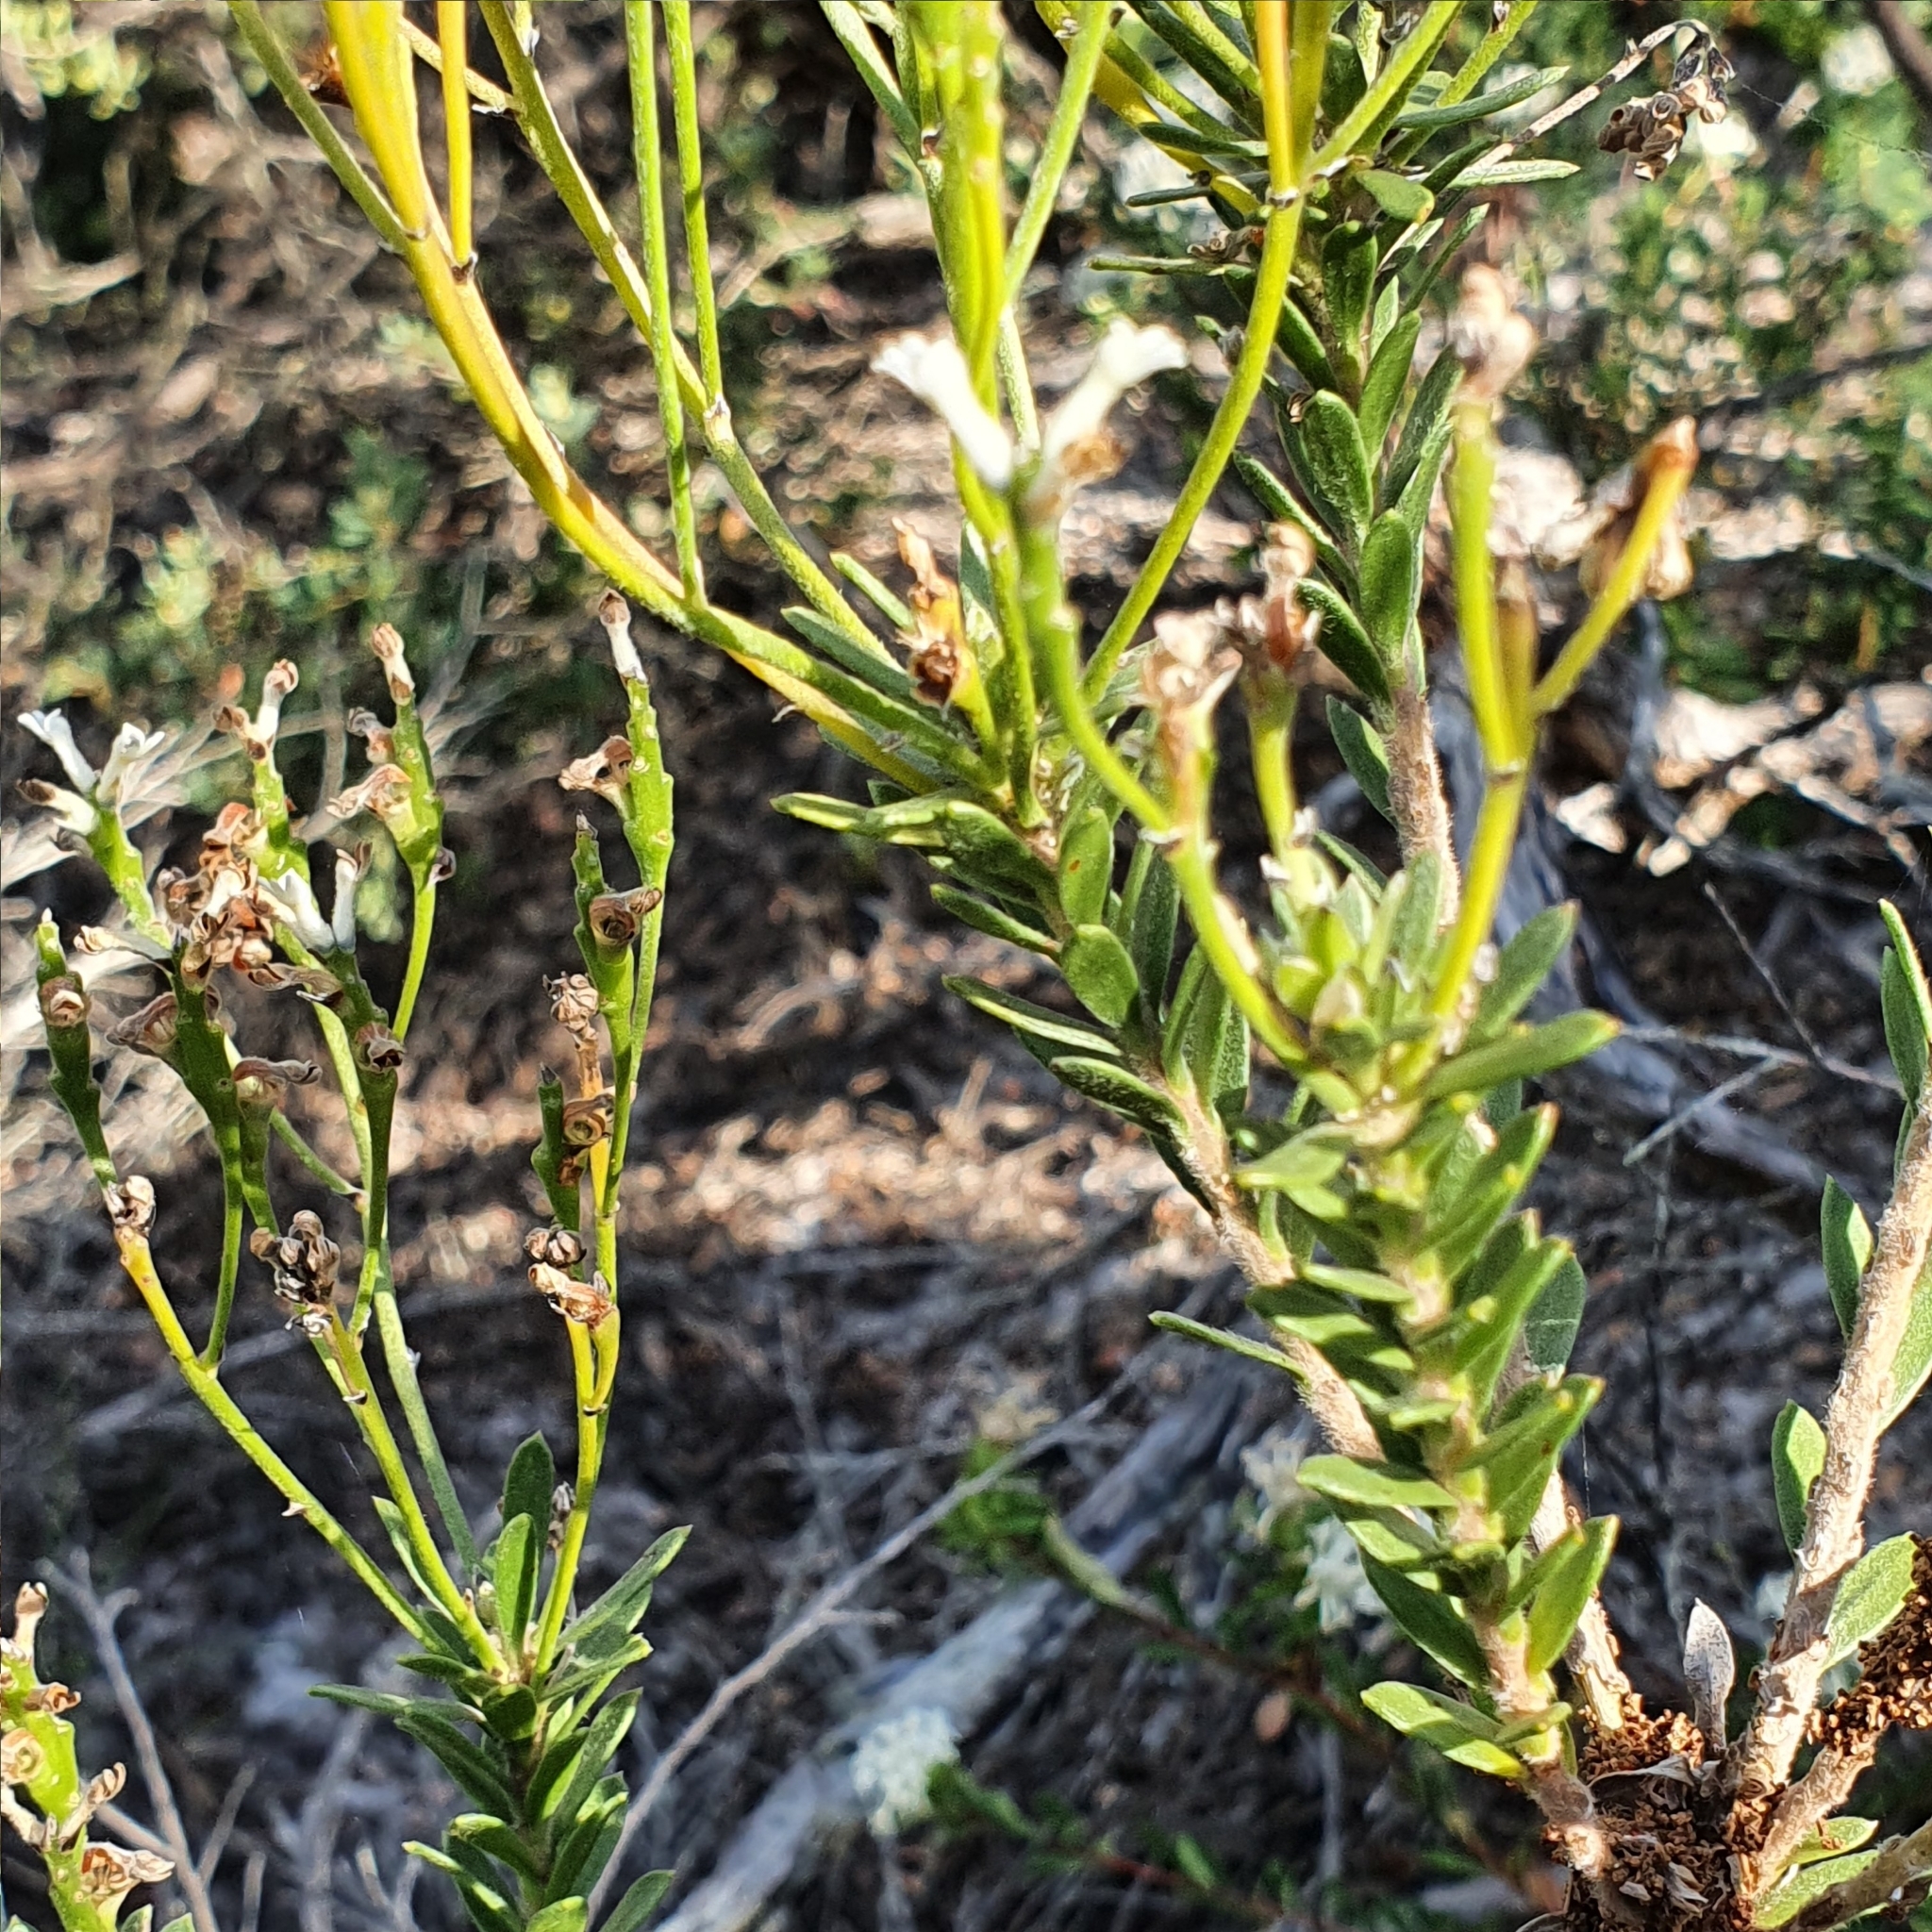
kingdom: Plantae
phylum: Tracheophyta
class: Magnoliopsida
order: Proteales
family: Proteaceae
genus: Conospermum
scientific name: Conospermum ellipticum
